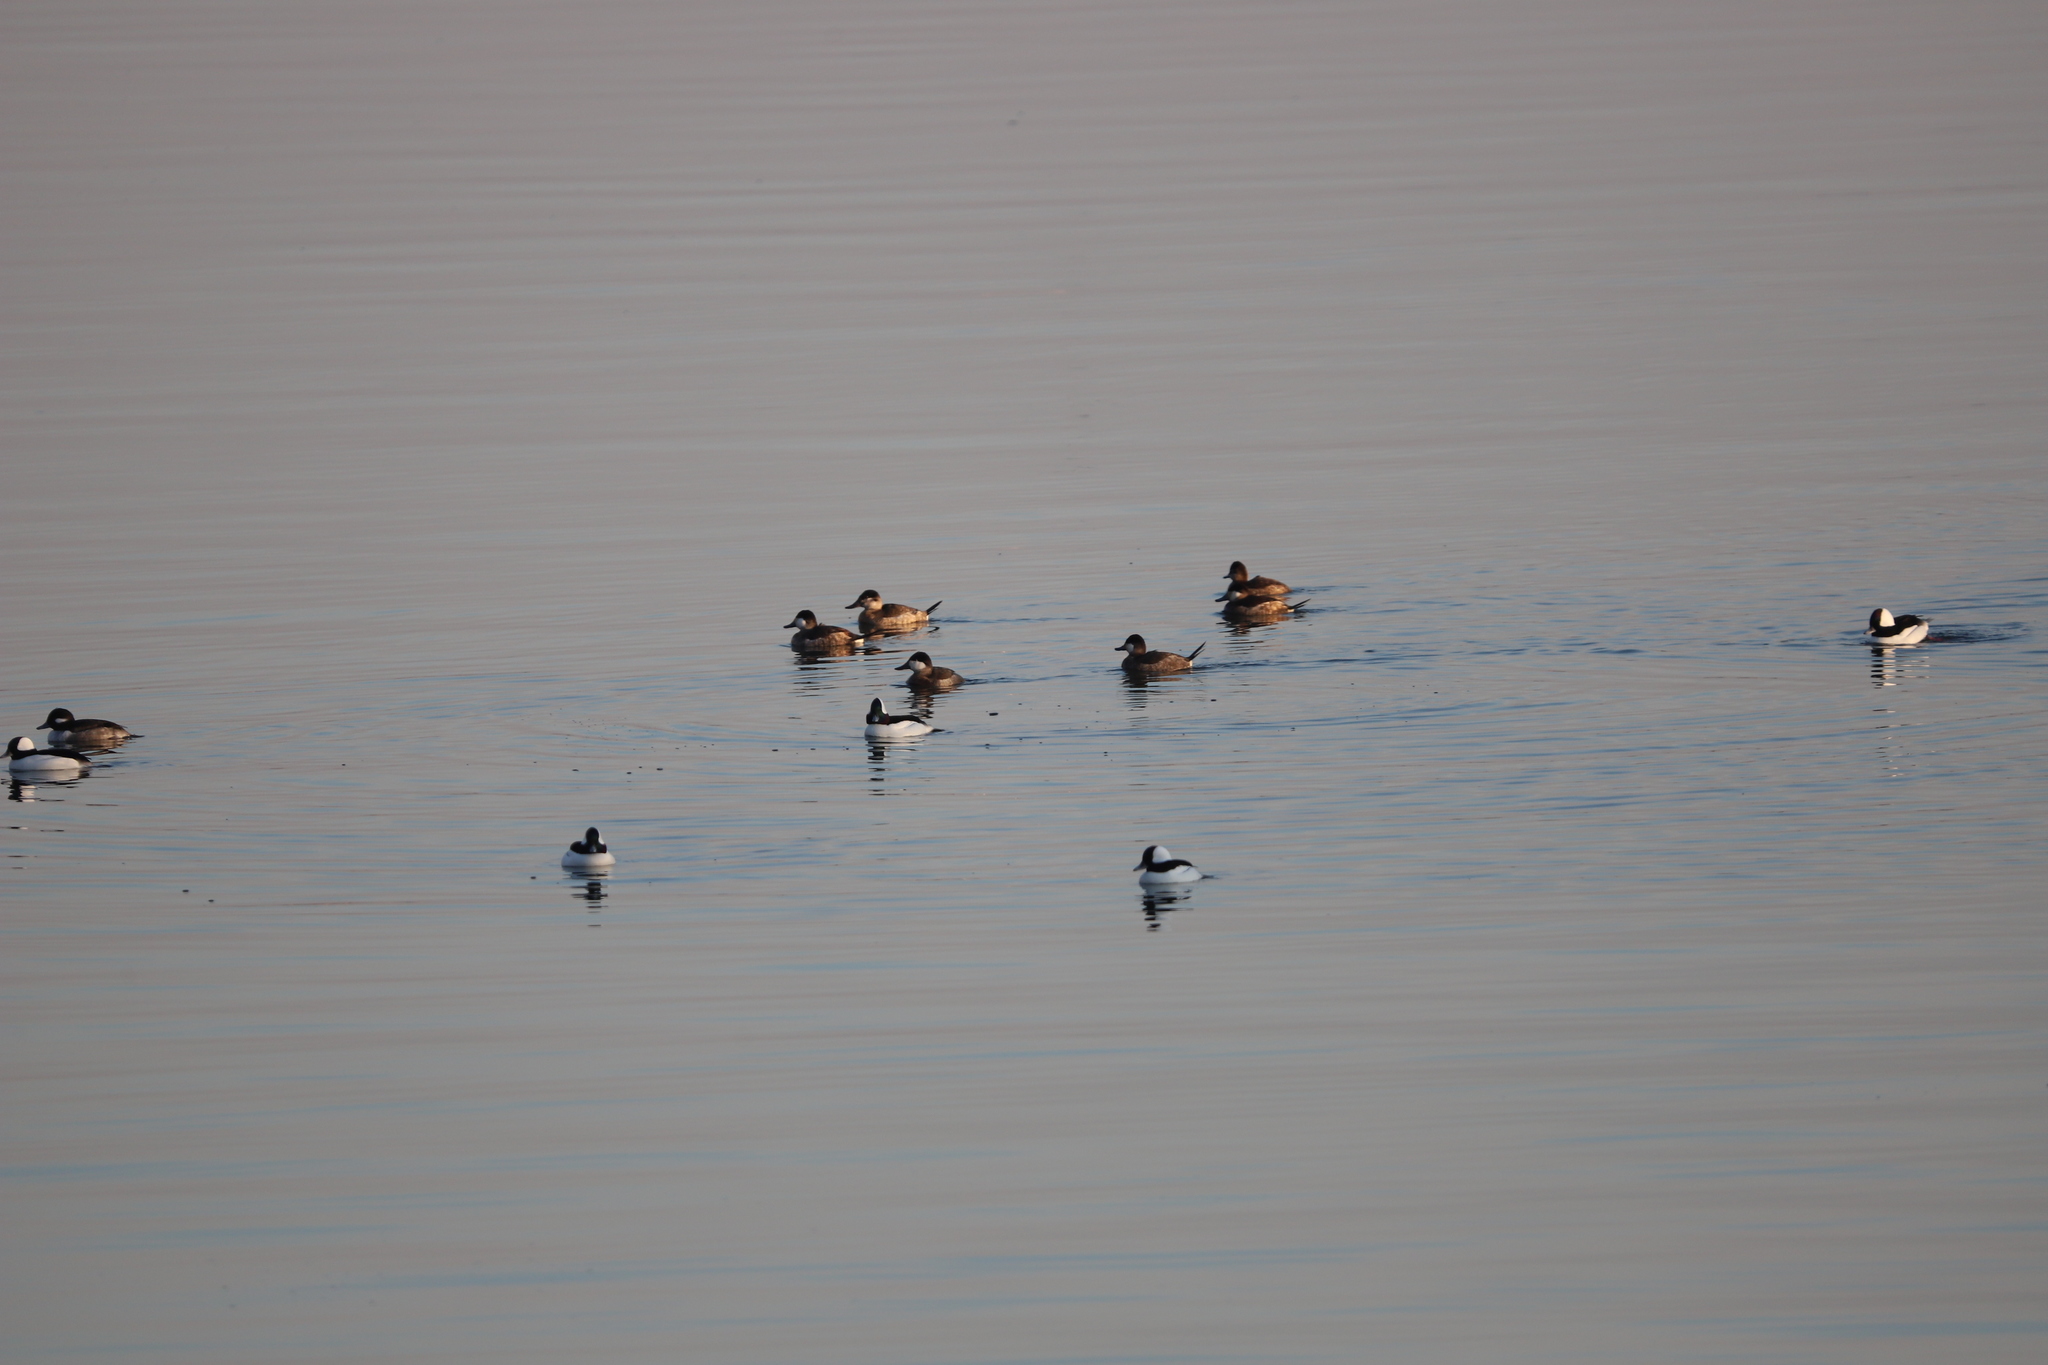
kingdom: Animalia
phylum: Chordata
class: Aves
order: Anseriformes
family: Anatidae
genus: Oxyura
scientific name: Oxyura jamaicensis
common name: Ruddy duck
